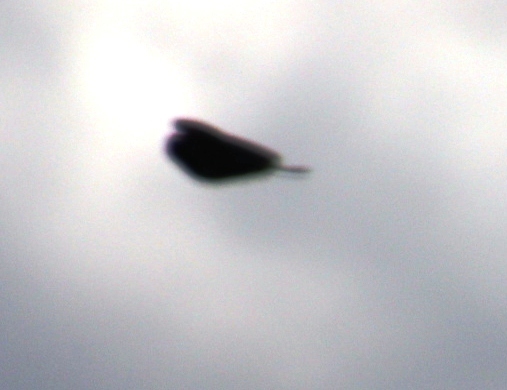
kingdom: Animalia
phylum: Chordata
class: Aves
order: Passeriformes
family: Ploceidae
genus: Euplectes
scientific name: Euplectes axillaris
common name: Fan-tailed widowbird
